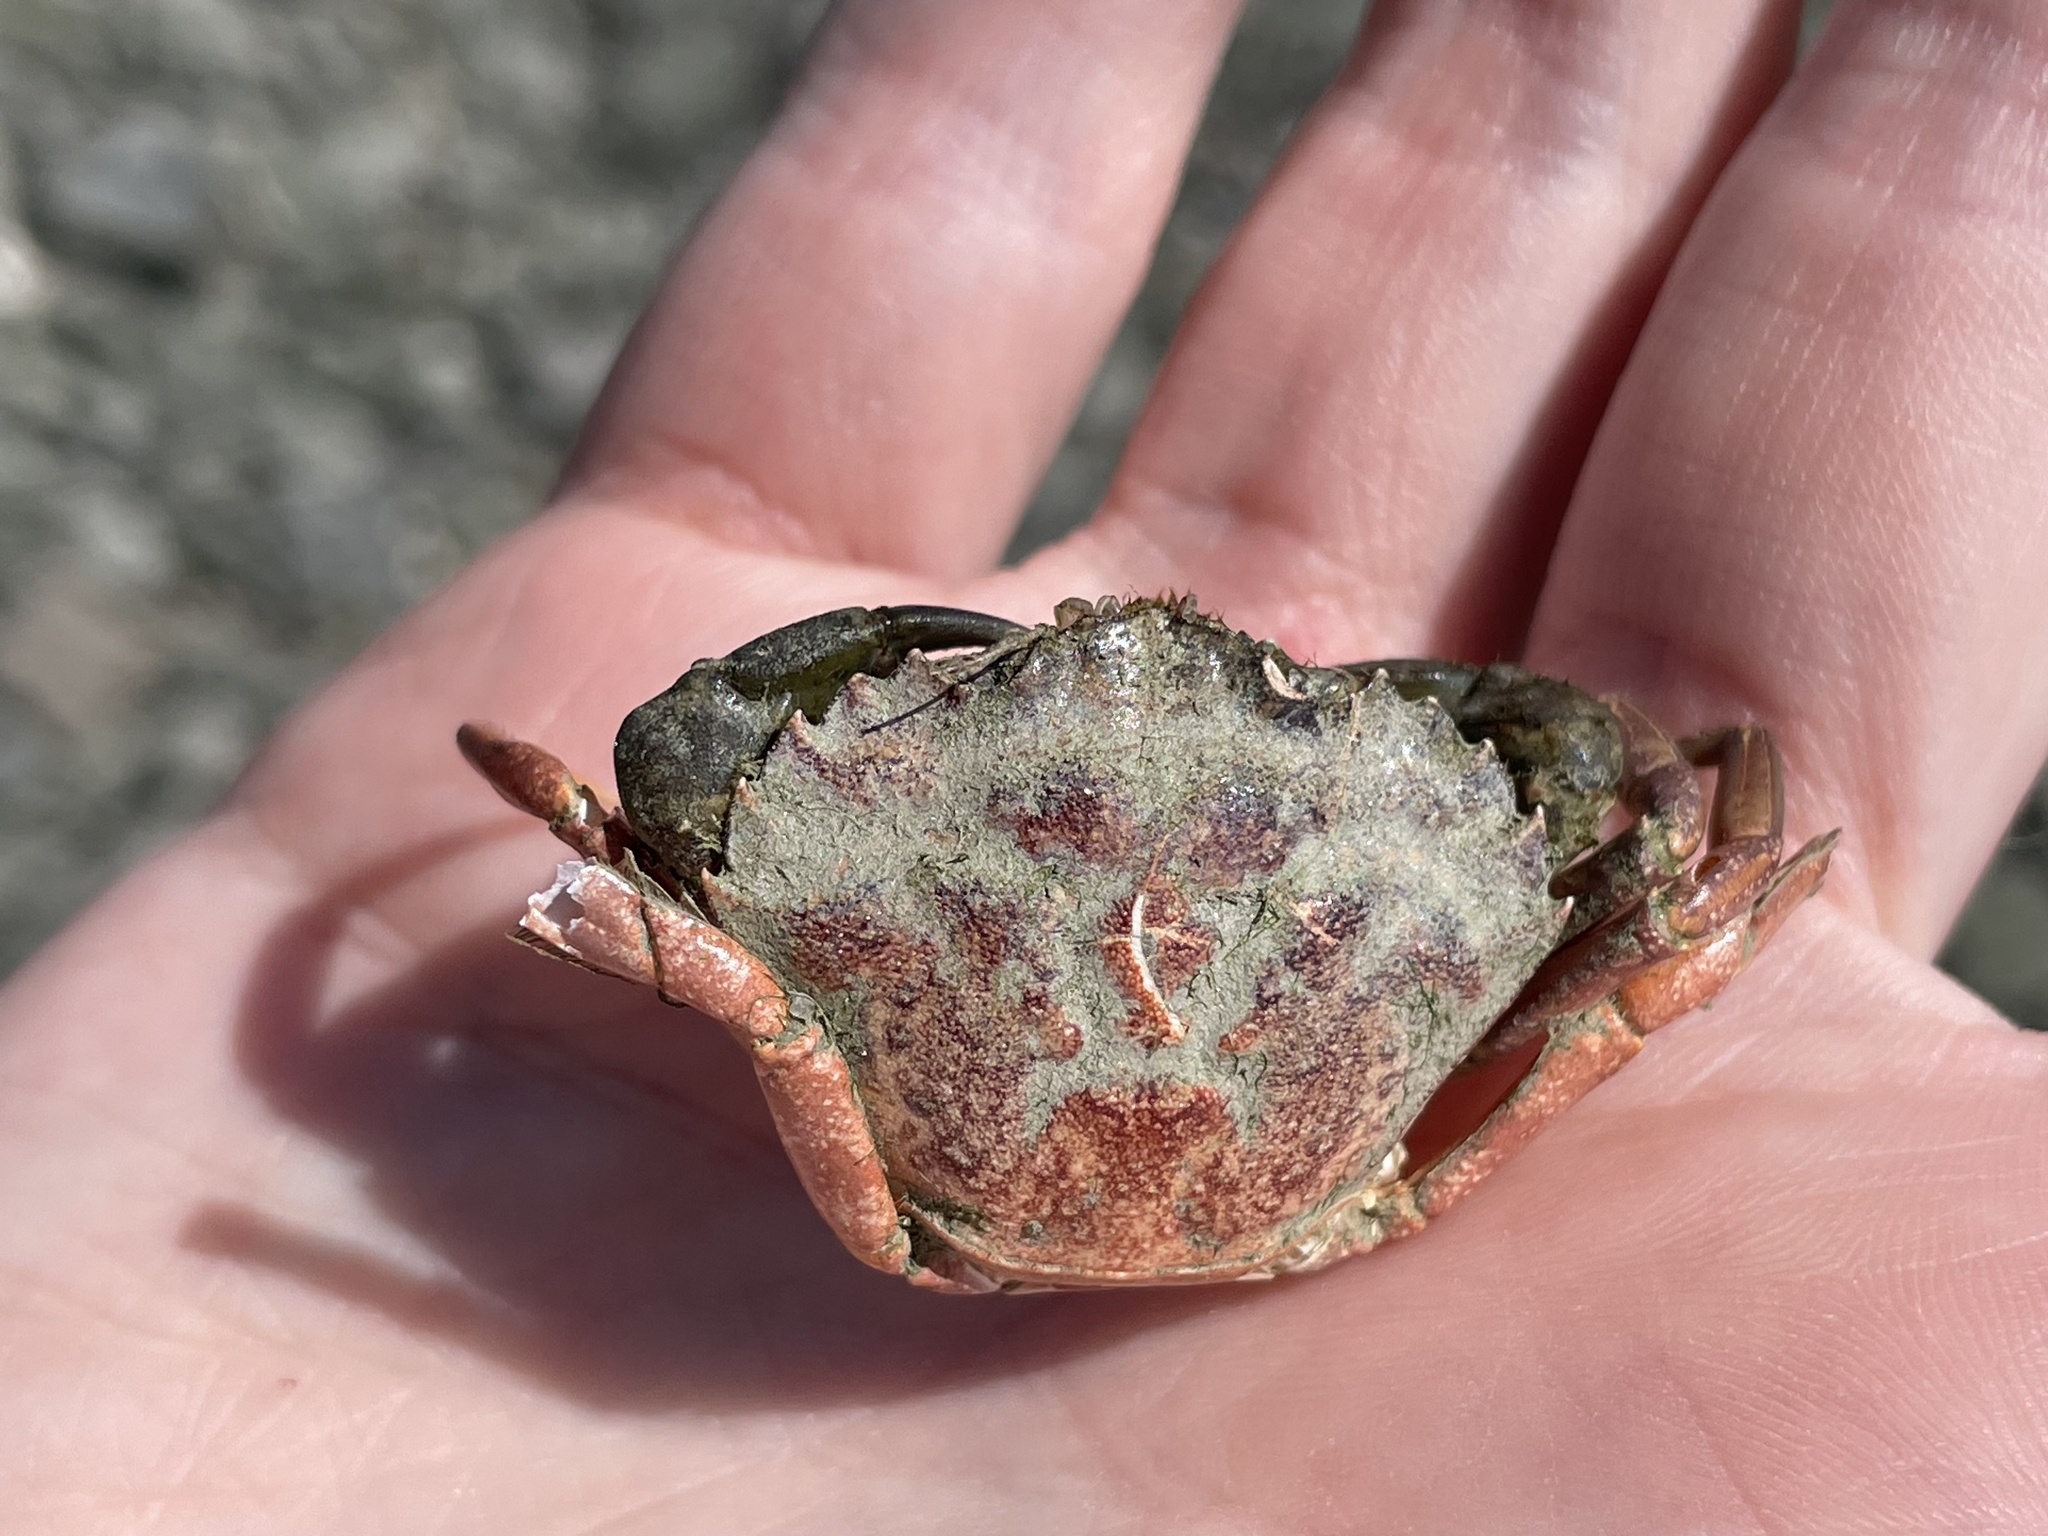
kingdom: Animalia
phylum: Arthropoda
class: Malacostraca
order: Decapoda
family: Carcinidae
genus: Carcinus
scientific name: Carcinus maenas
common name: European green crab
